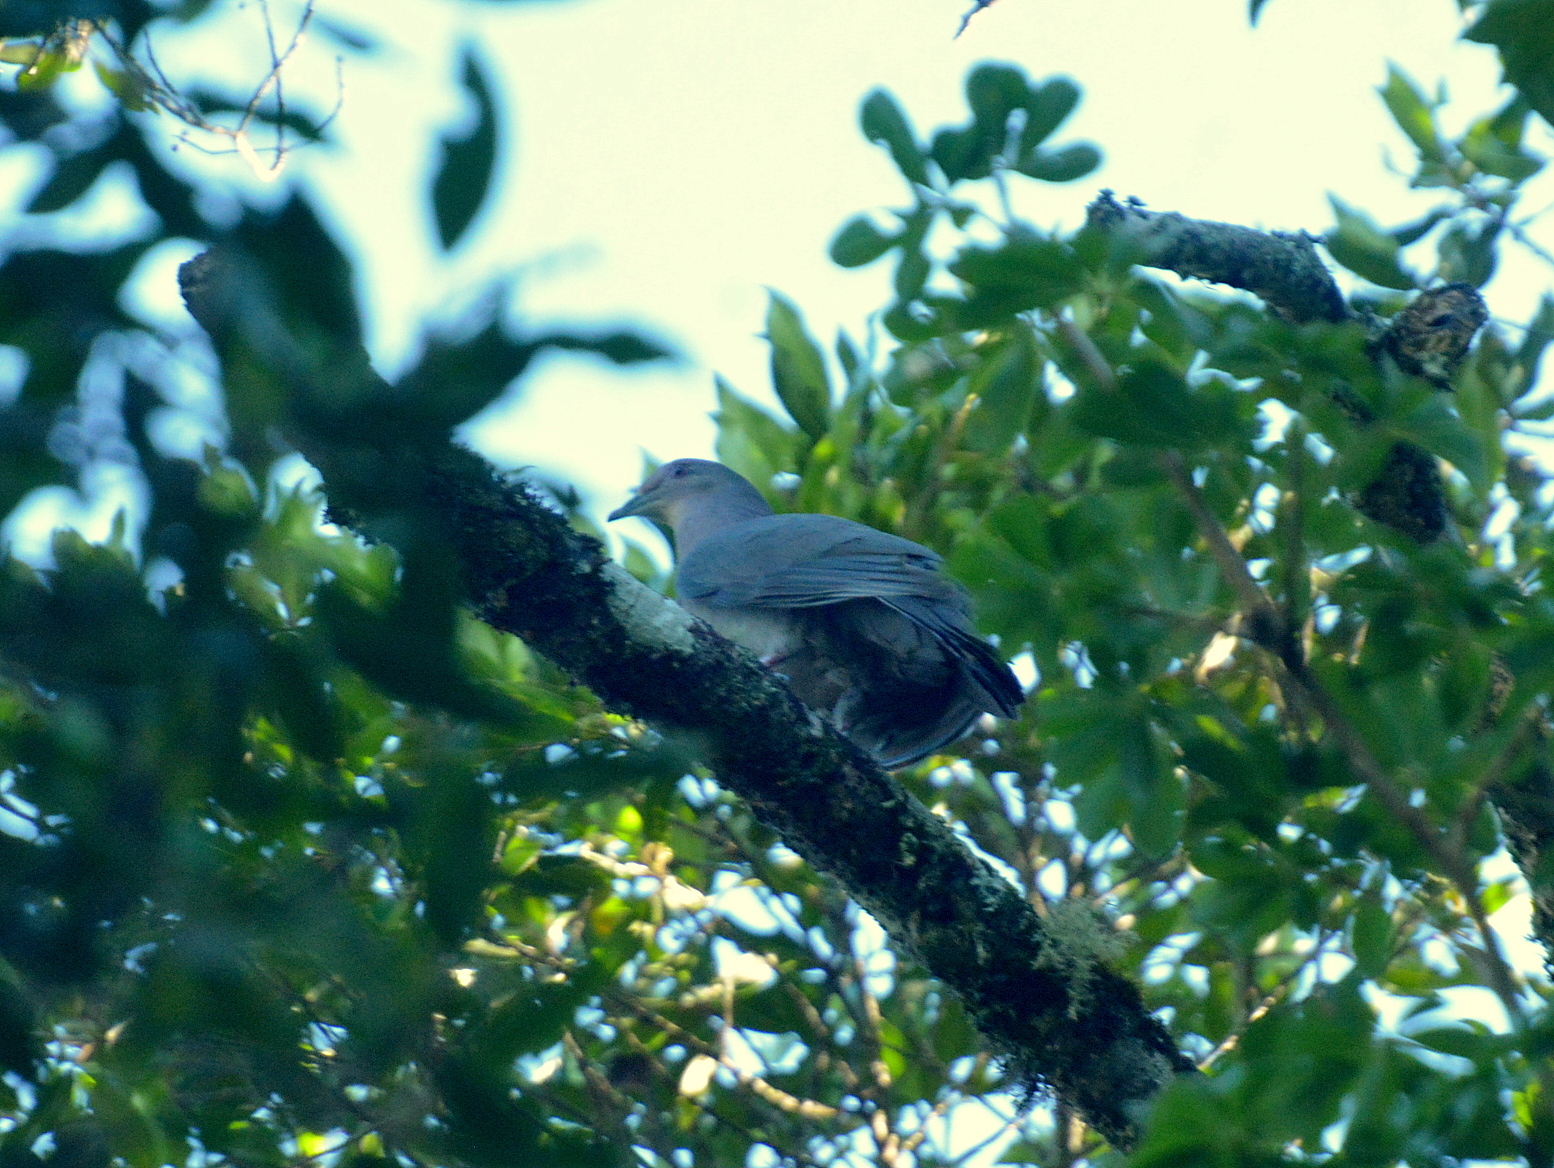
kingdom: Animalia
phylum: Chordata
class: Aves
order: Columbiformes
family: Columbidae
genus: Patagioenas
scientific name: Patagioenas plumbea
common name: Plumbeous pigeon
